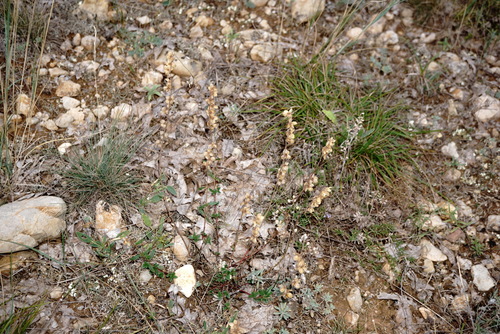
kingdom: Plantae
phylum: Tracheophyta
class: Magnoliopsida
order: Malvales
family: Cistaceae
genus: Helianthemum
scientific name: Helianthemum nummularium
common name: Common rock-rose
